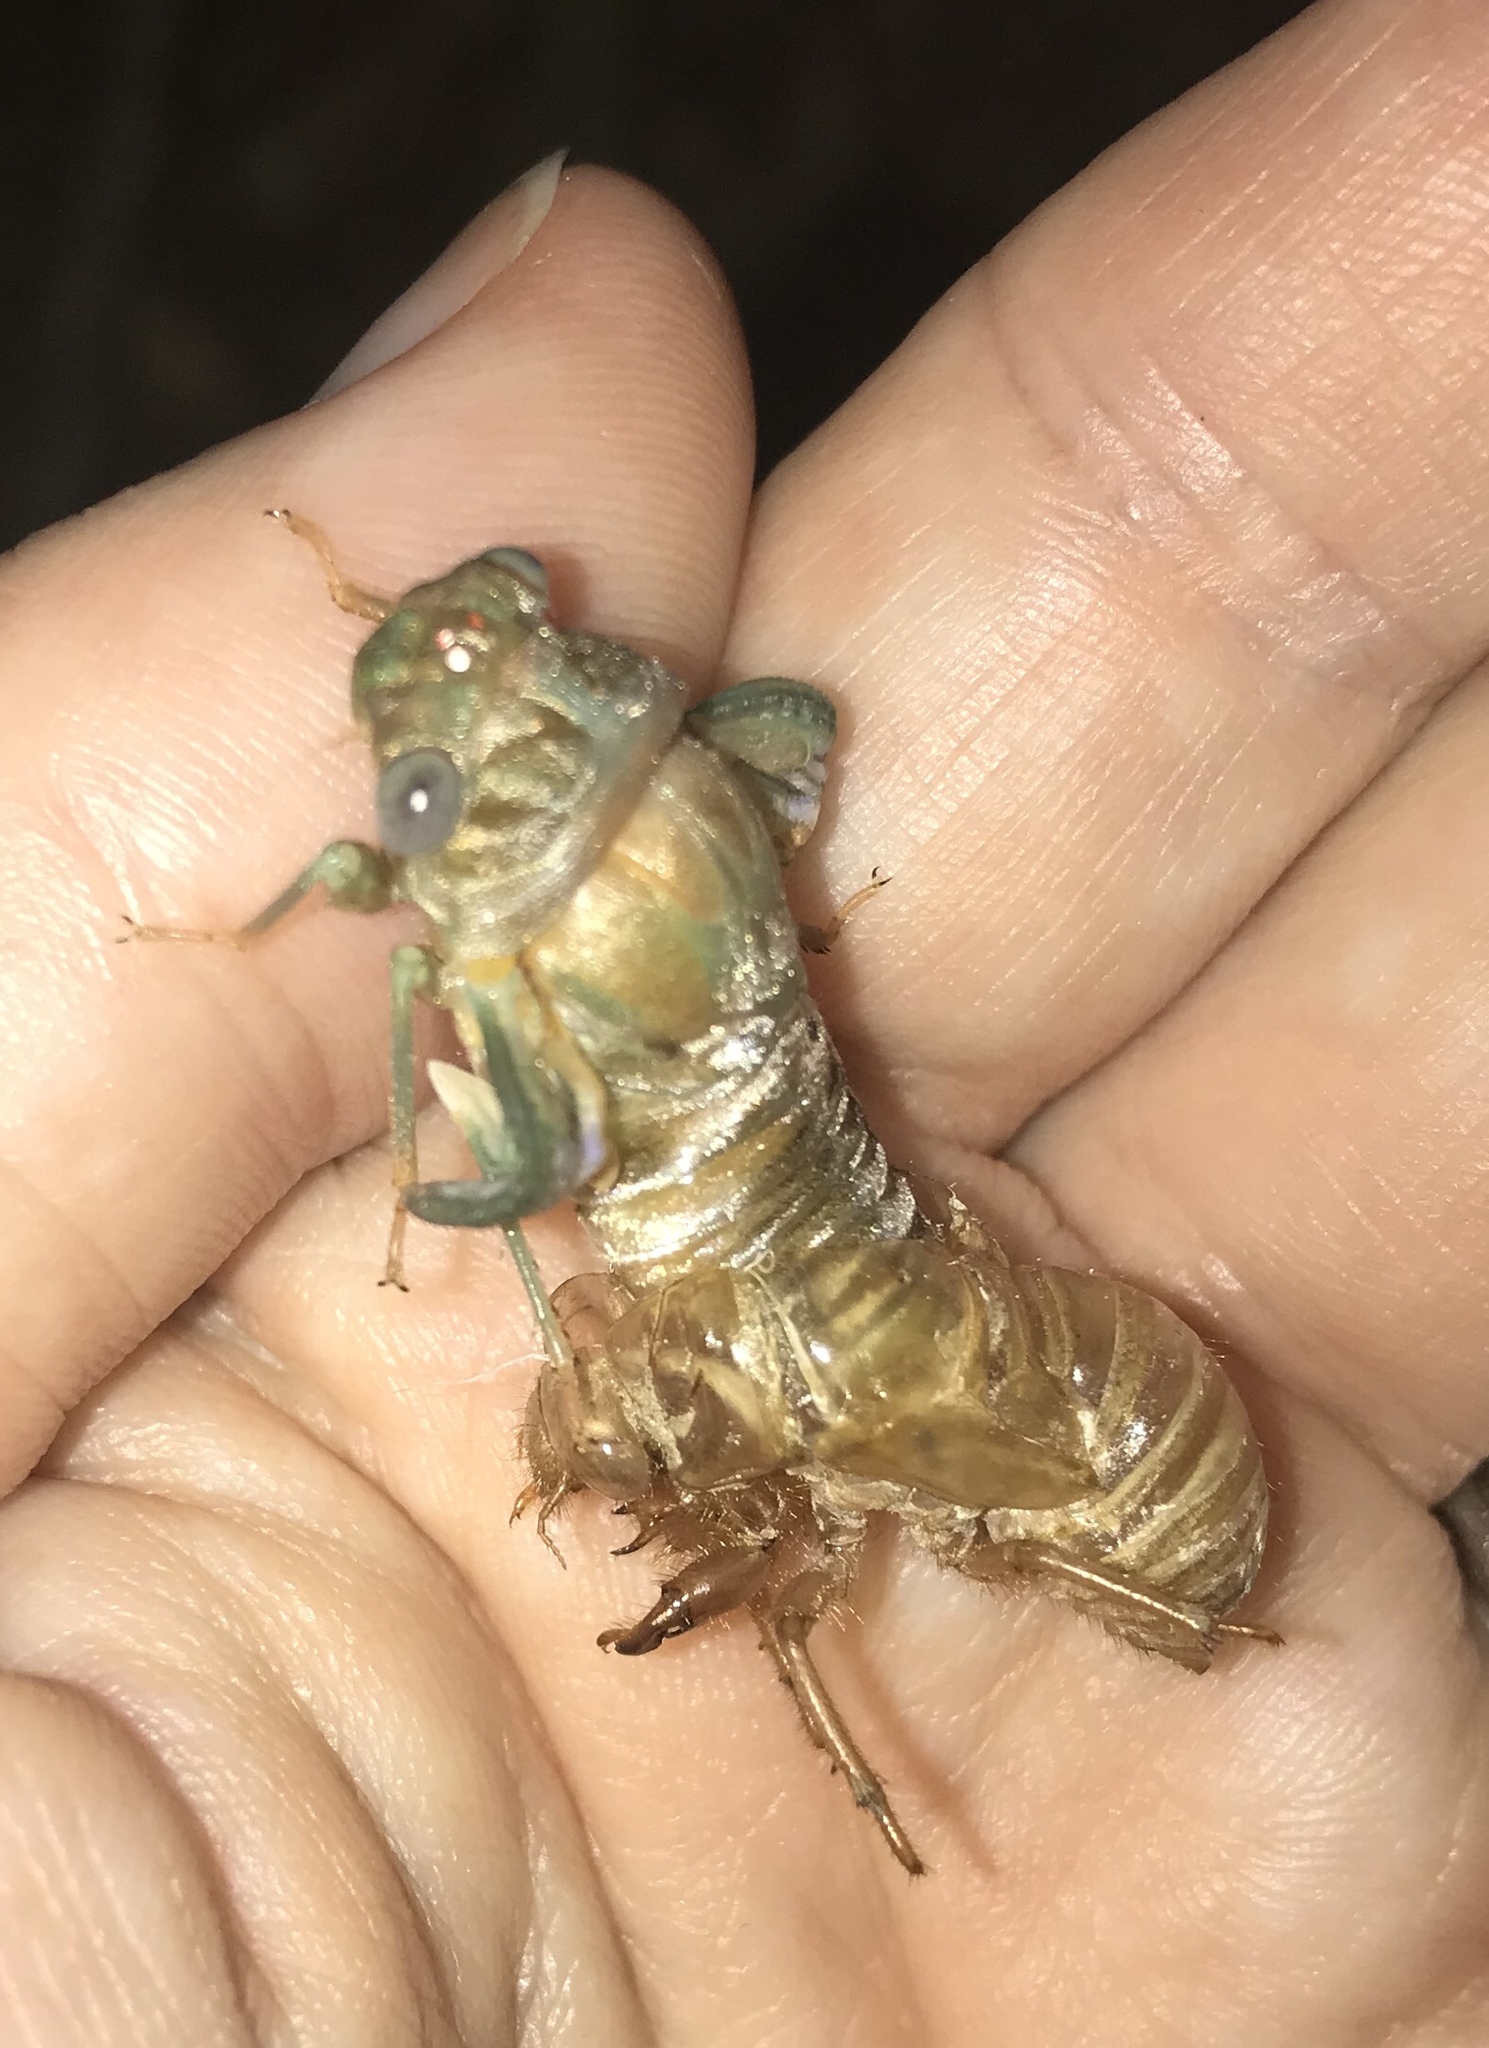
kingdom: Animalia
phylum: Arthropoda
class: Insecta
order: Hemiptera
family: Cicadidae
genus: Megatibicen
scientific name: Megatibicen resh
